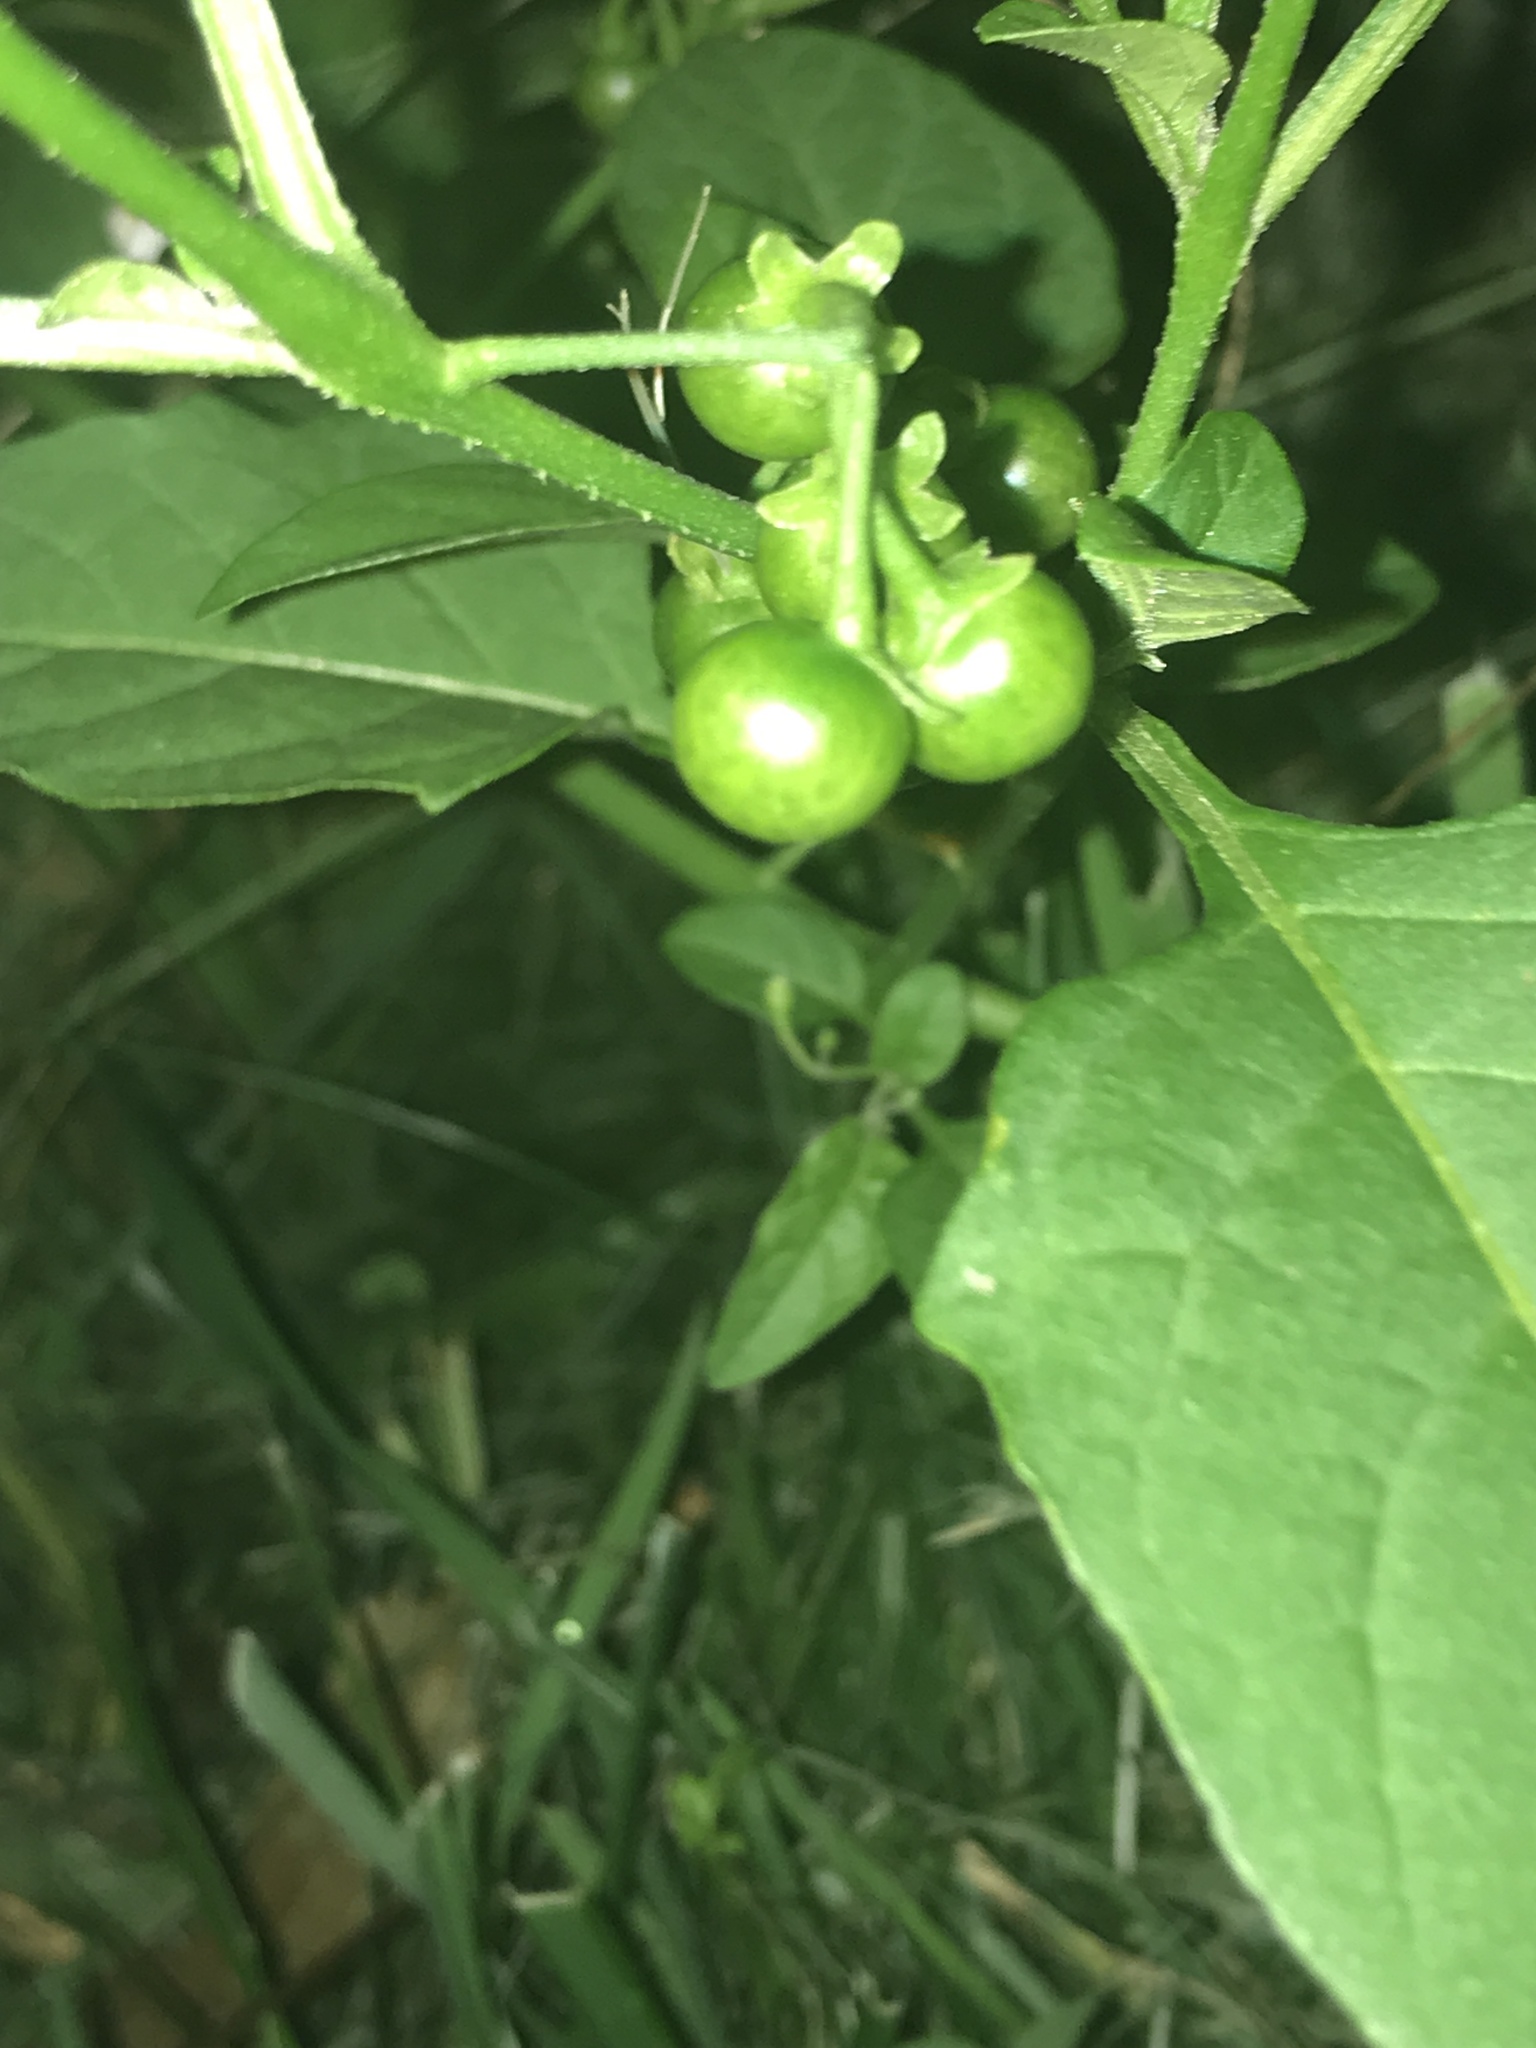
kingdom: Plantae
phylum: Tracheophyta
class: Magnoliopsida
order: Solanales
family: Solanaceae
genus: Solanum
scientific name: Solanum emulans
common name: Eastern black nightshade
